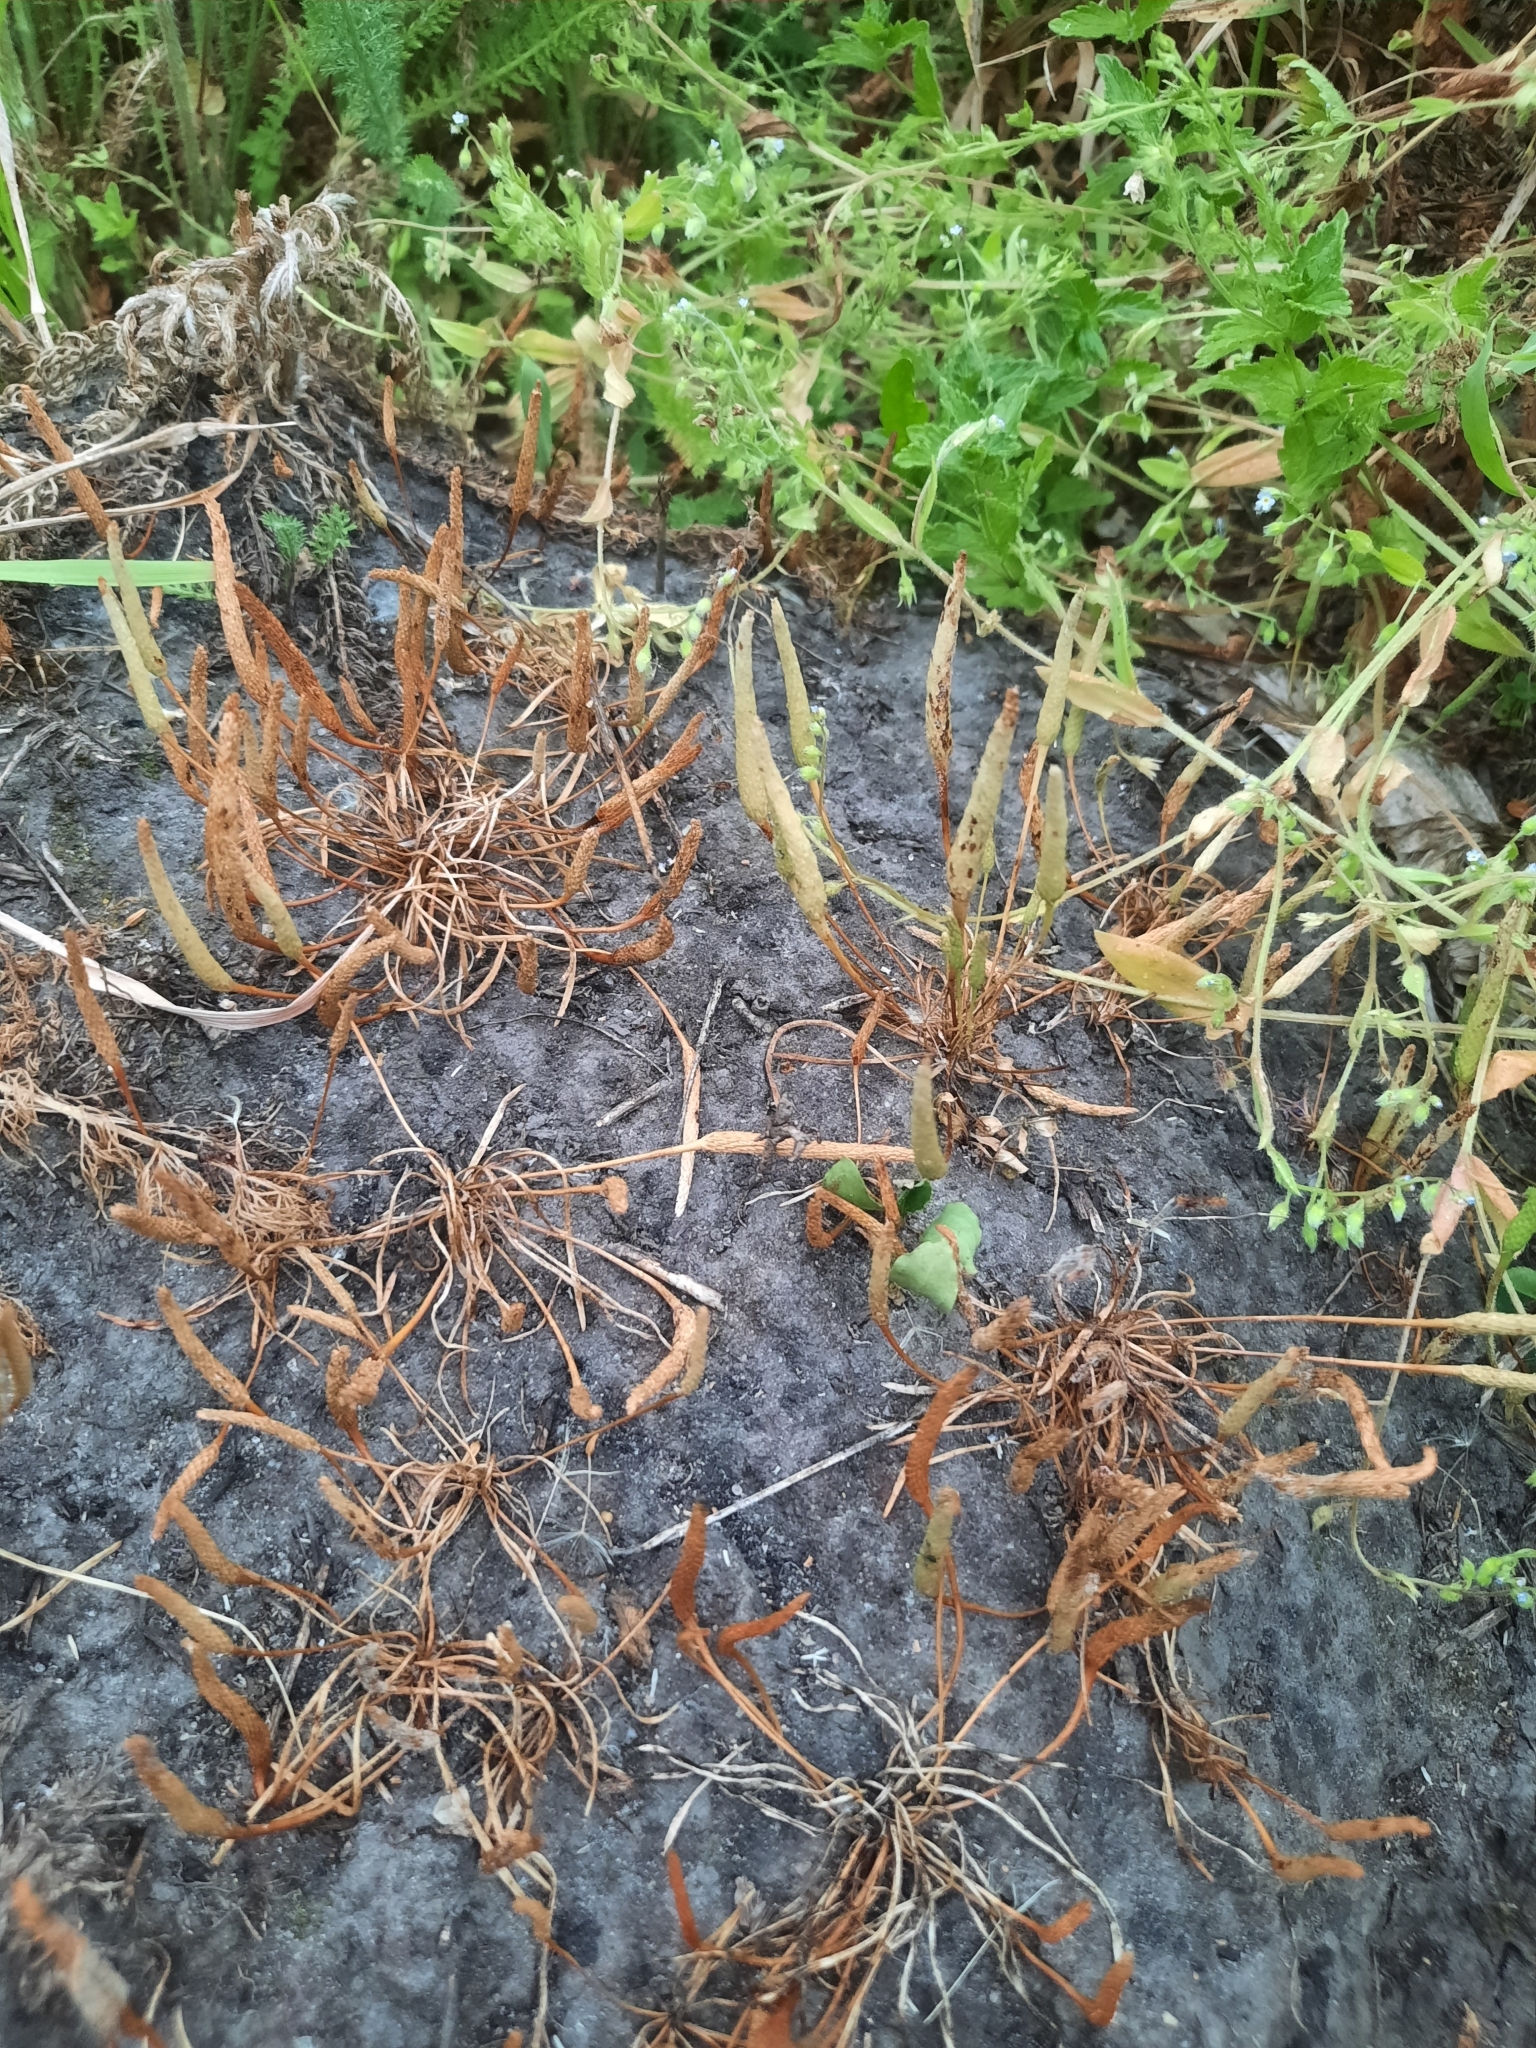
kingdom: Plantae
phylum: Tracheophyta
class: Magnoliopsida
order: Ranunculales
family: Ranunculaceae
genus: Myosurus
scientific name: Myosurus minimus
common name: Mousetail
